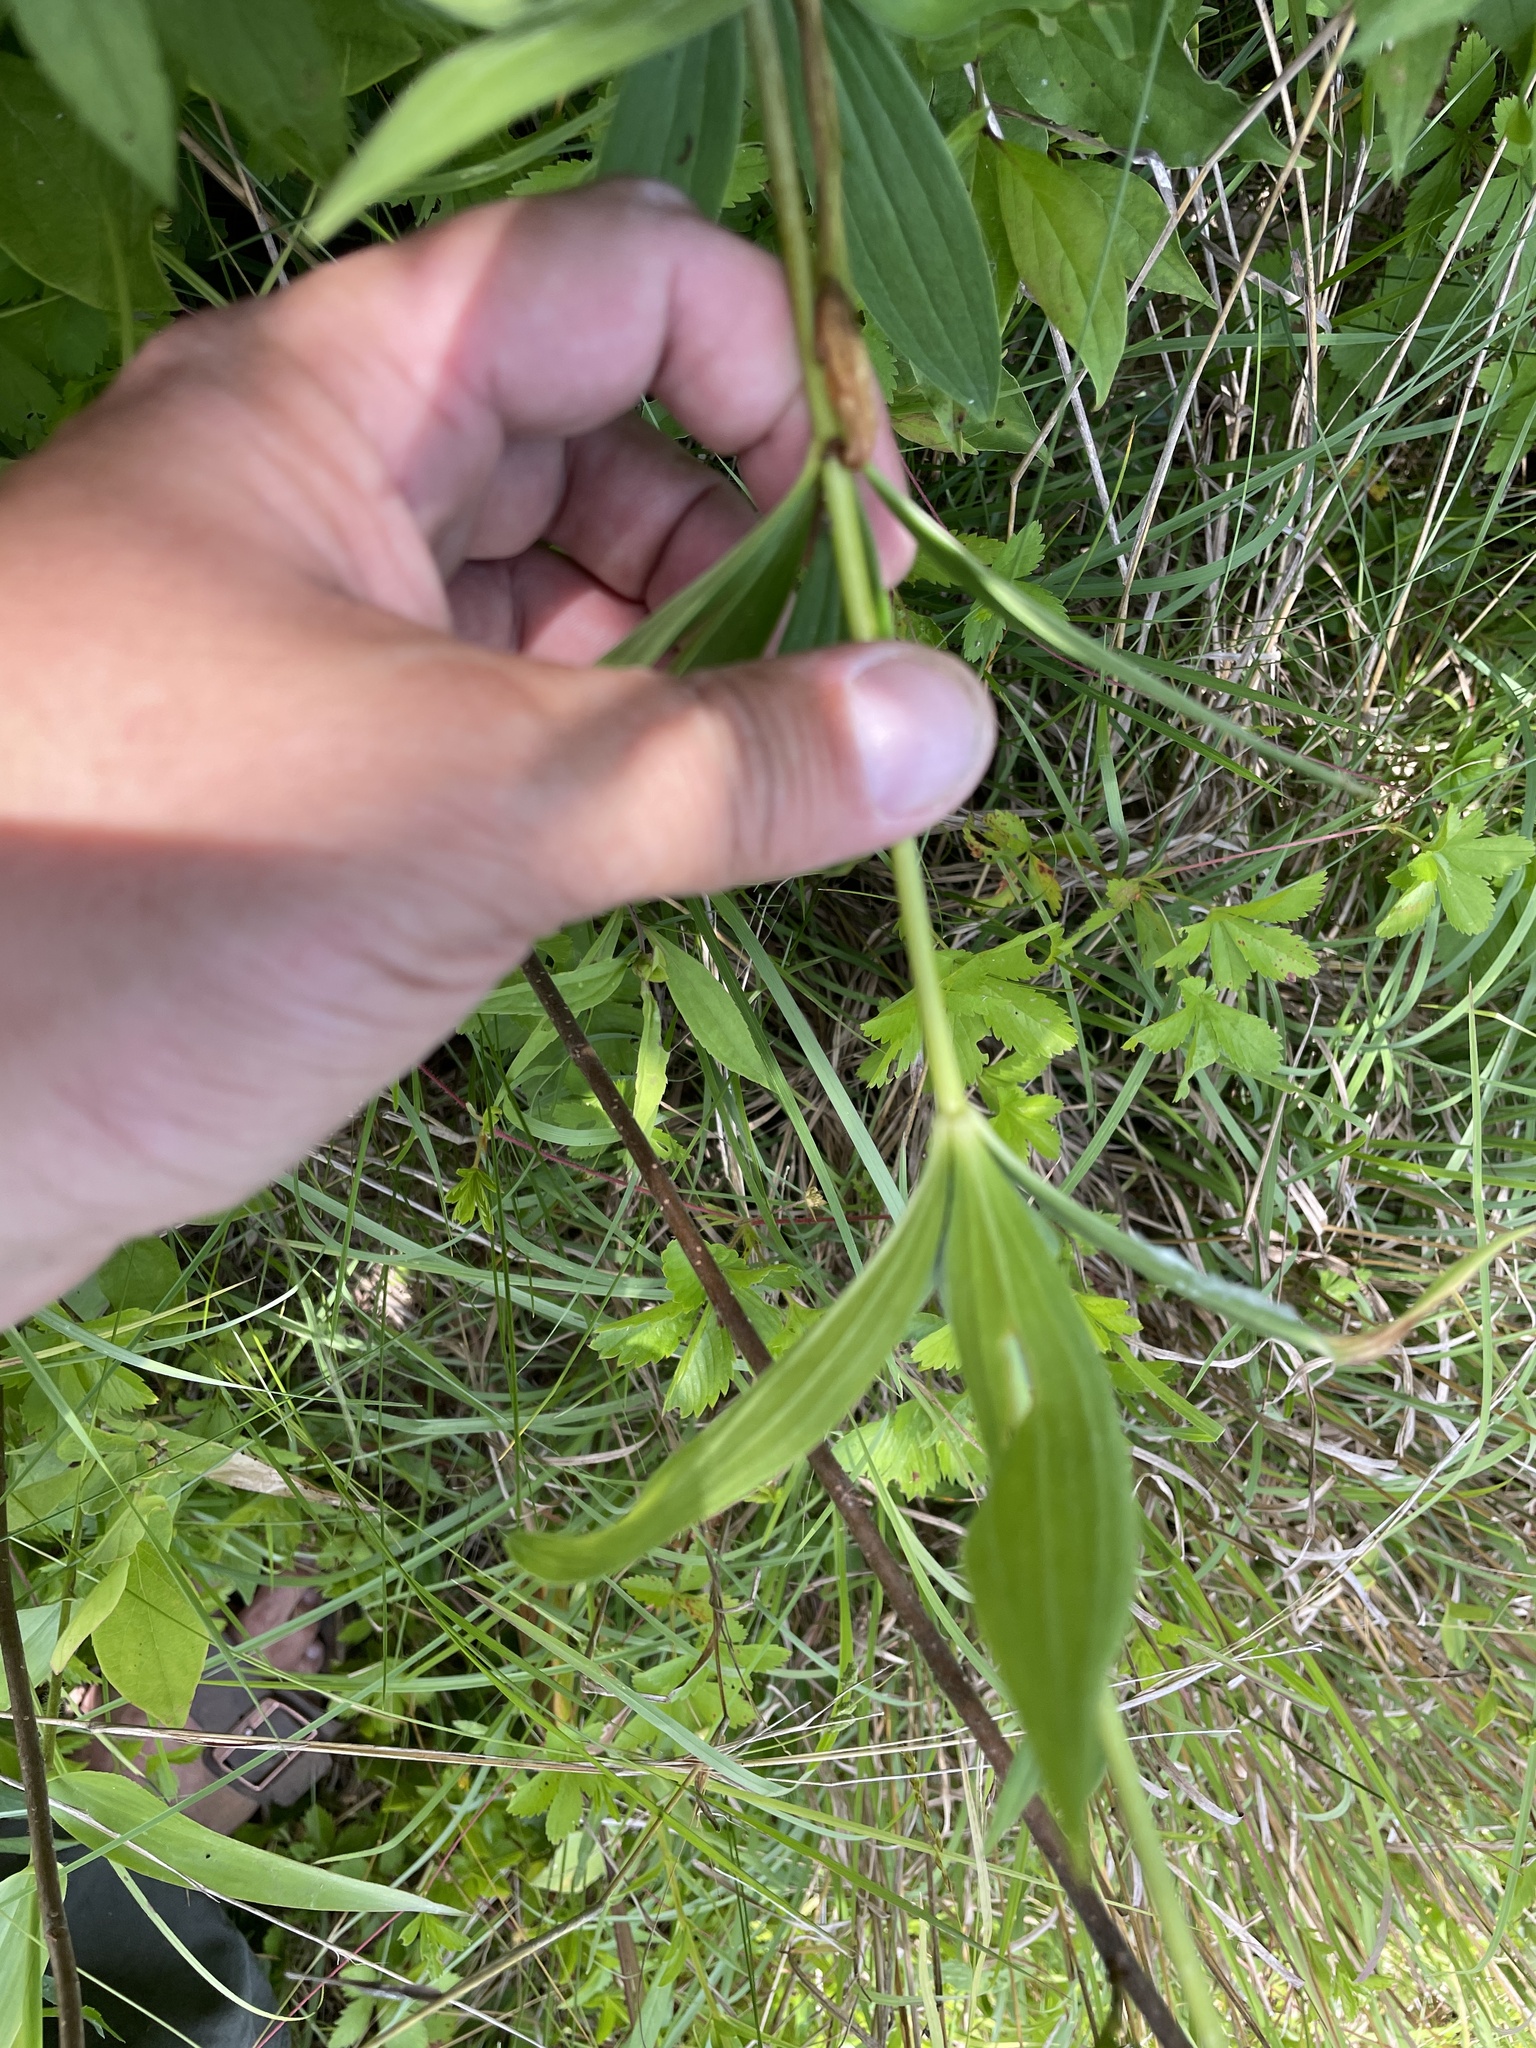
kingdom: Plantae
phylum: Tracheophyta
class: Liliopsida
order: Liliales
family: Liliaceae
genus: Lilium
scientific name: Lilium canadense
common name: Canada lily
